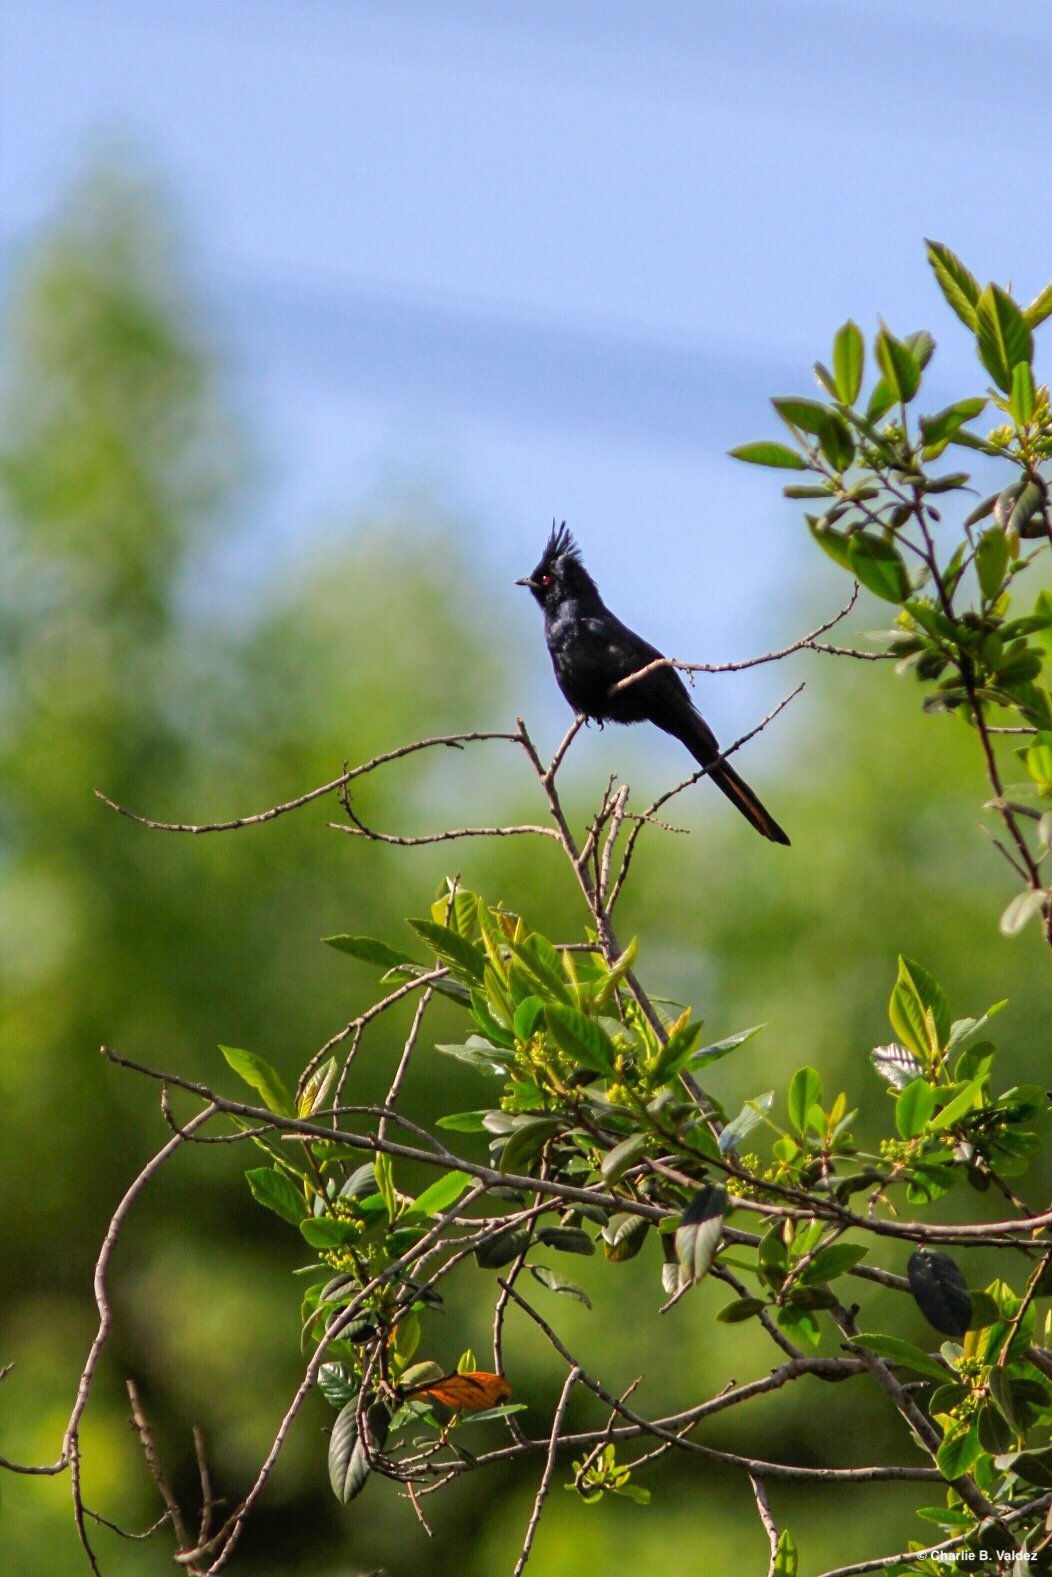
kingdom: Animalia
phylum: Chordata
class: Aves
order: Passeriformes
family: Ptilogonatidae
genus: Phainopepla
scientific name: Phainopepla nitens
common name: Phainopepla
